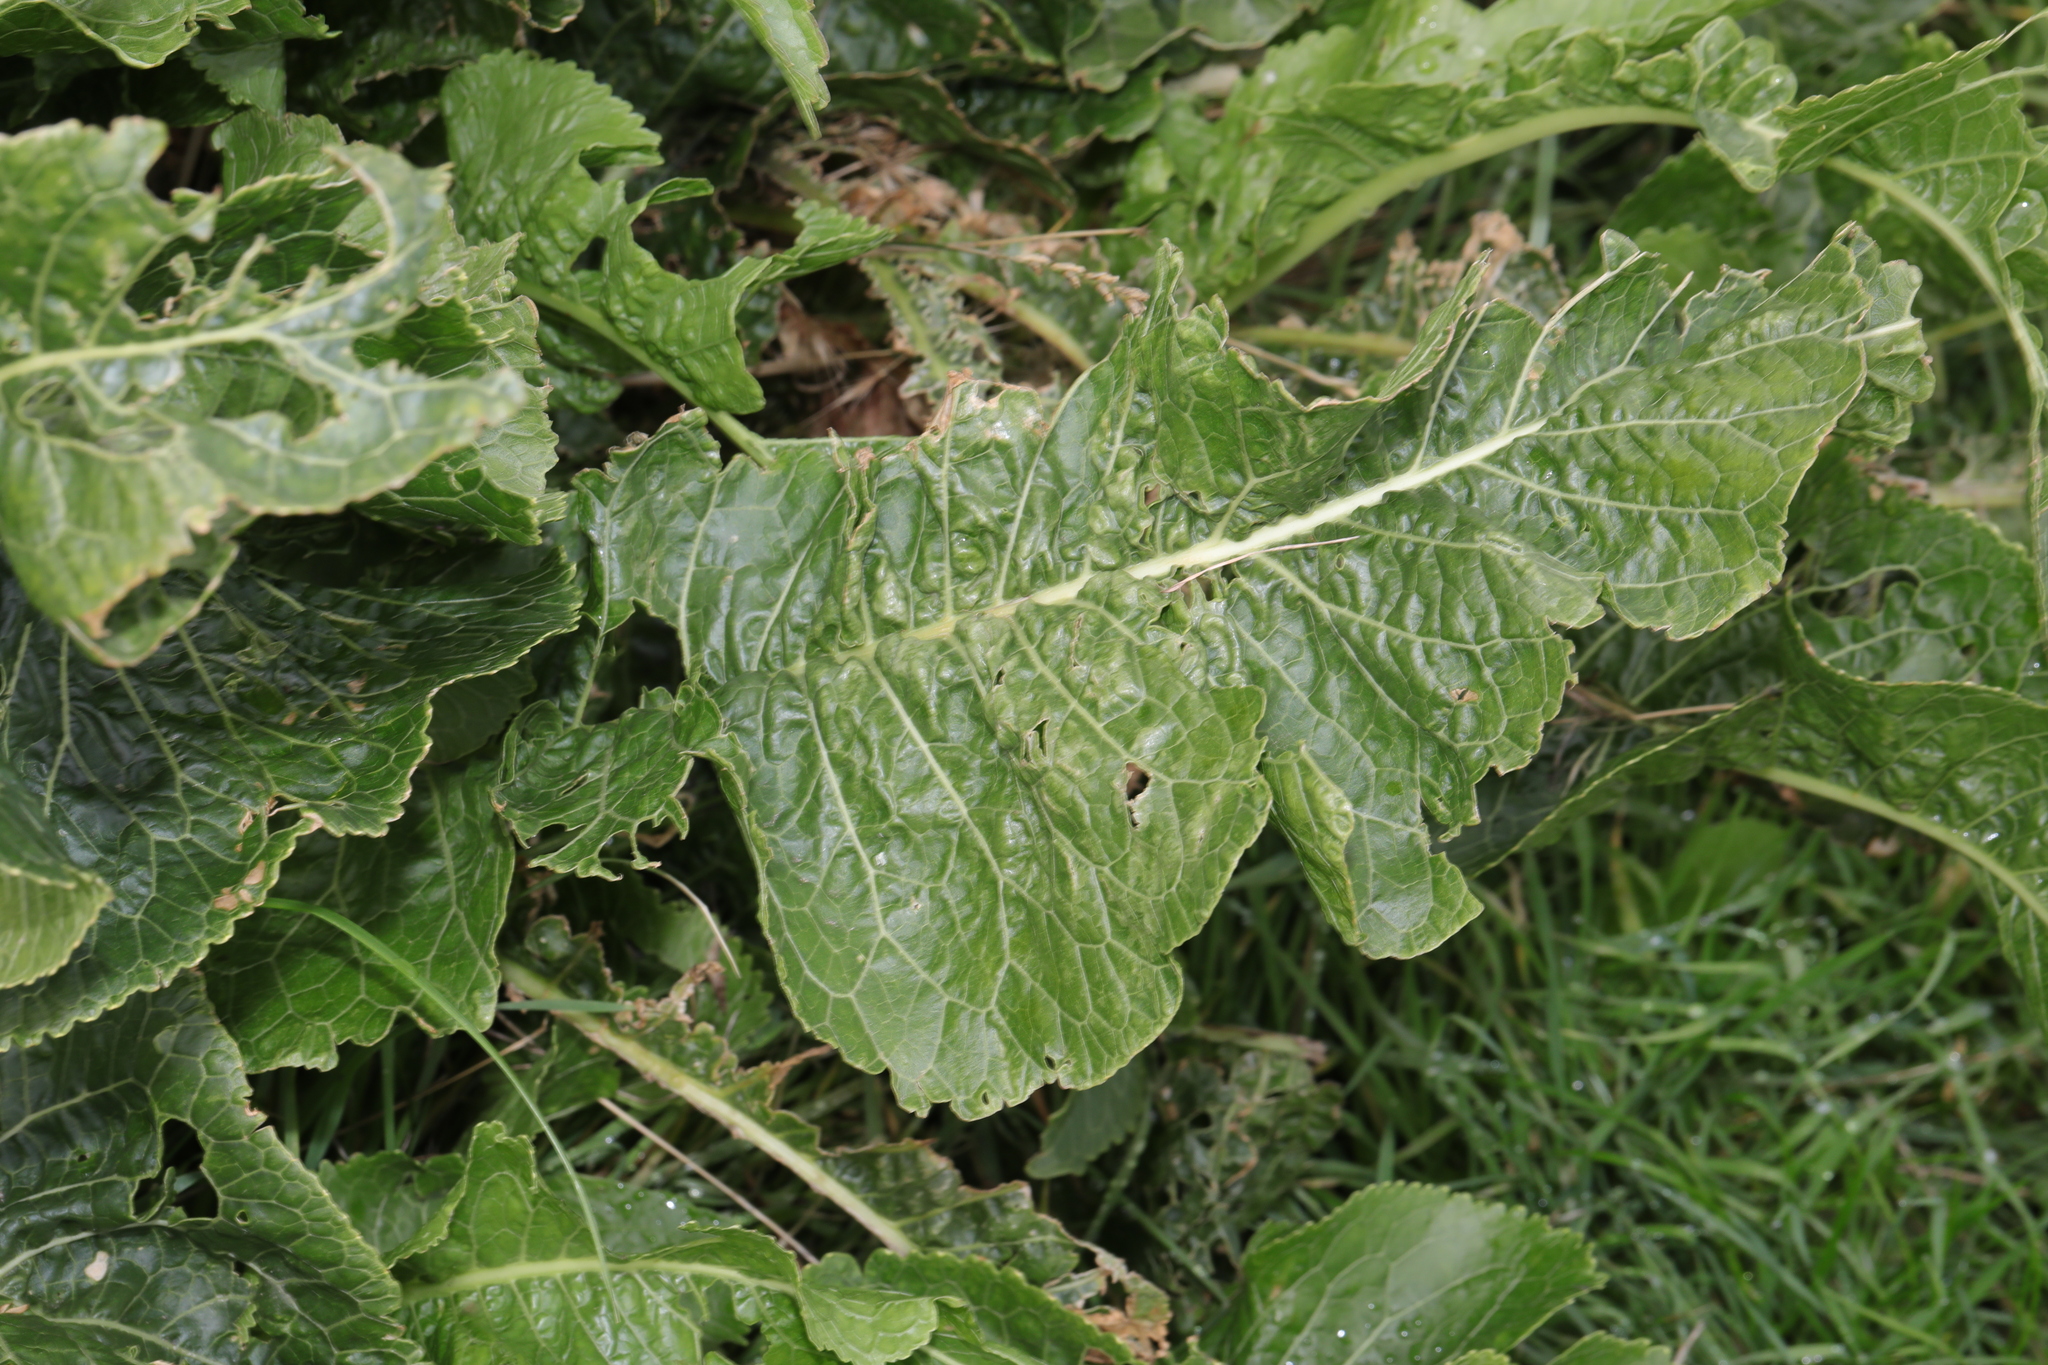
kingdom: Plantae
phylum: Tracheophyta
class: Magnoliopsida
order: Brassicales
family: Brassicaceae
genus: Armoracia
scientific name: Armoracia rusticana
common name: Horseradish
